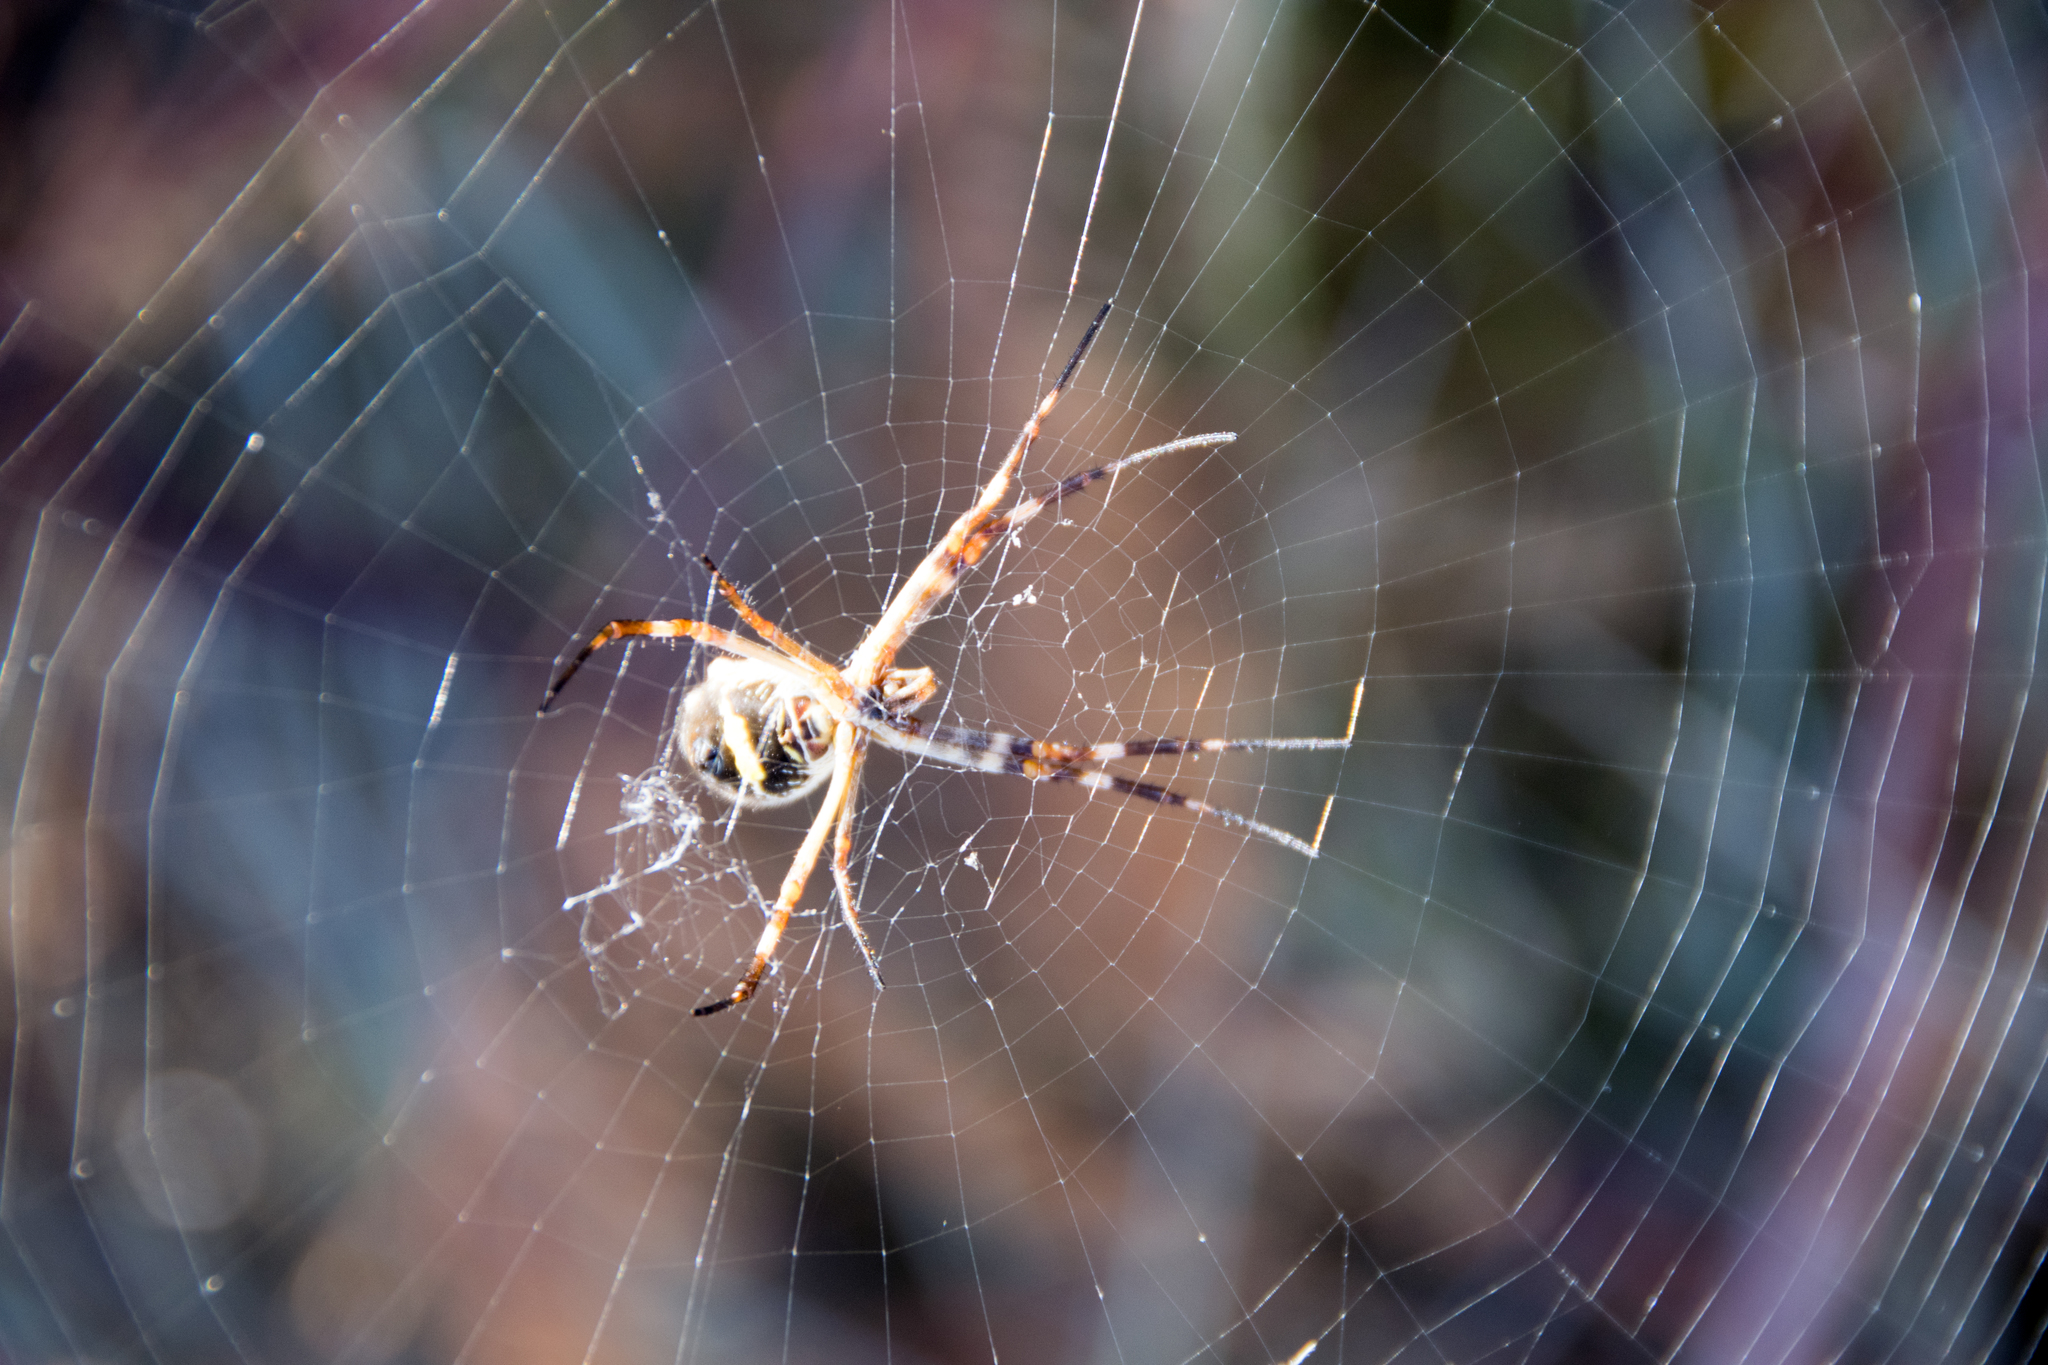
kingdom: Animalia
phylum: Arthropoda
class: Arachnida
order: Araneae
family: Araneidae
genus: Argiope
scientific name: Argiope argentata
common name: Orb weavers
